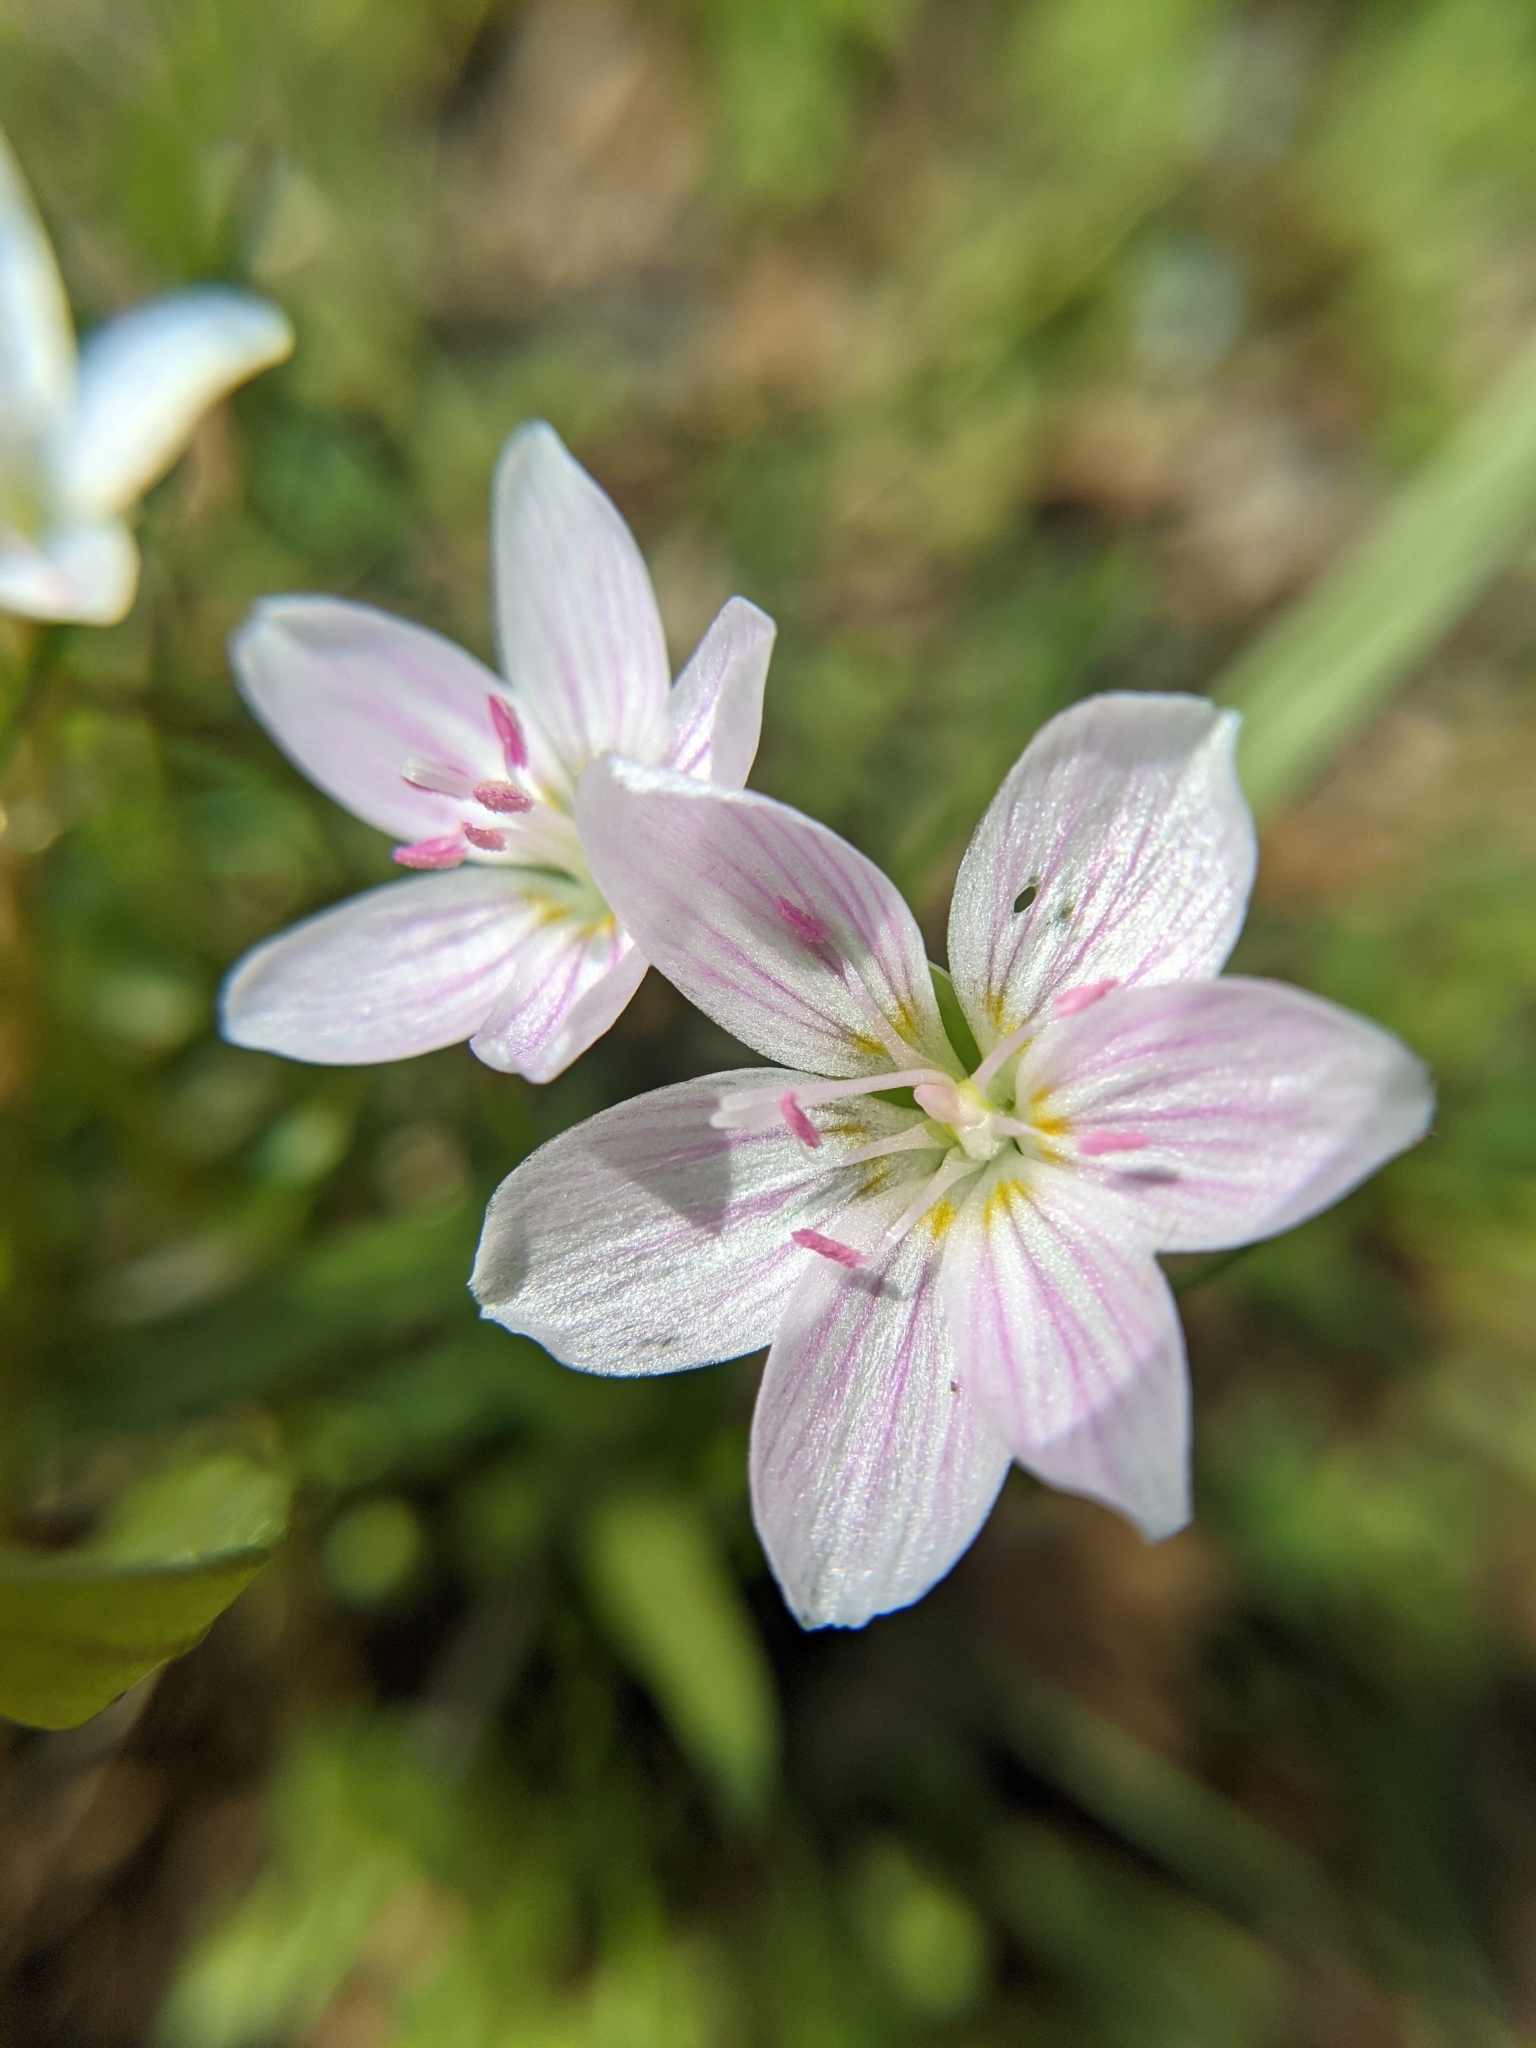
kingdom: Plantae
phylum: Tracheophyta
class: Magnoliopsida
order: Caryophyllales
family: Montiaceae
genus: Claytonia
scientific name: Claytonia virginica
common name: Virginia springbeauty
